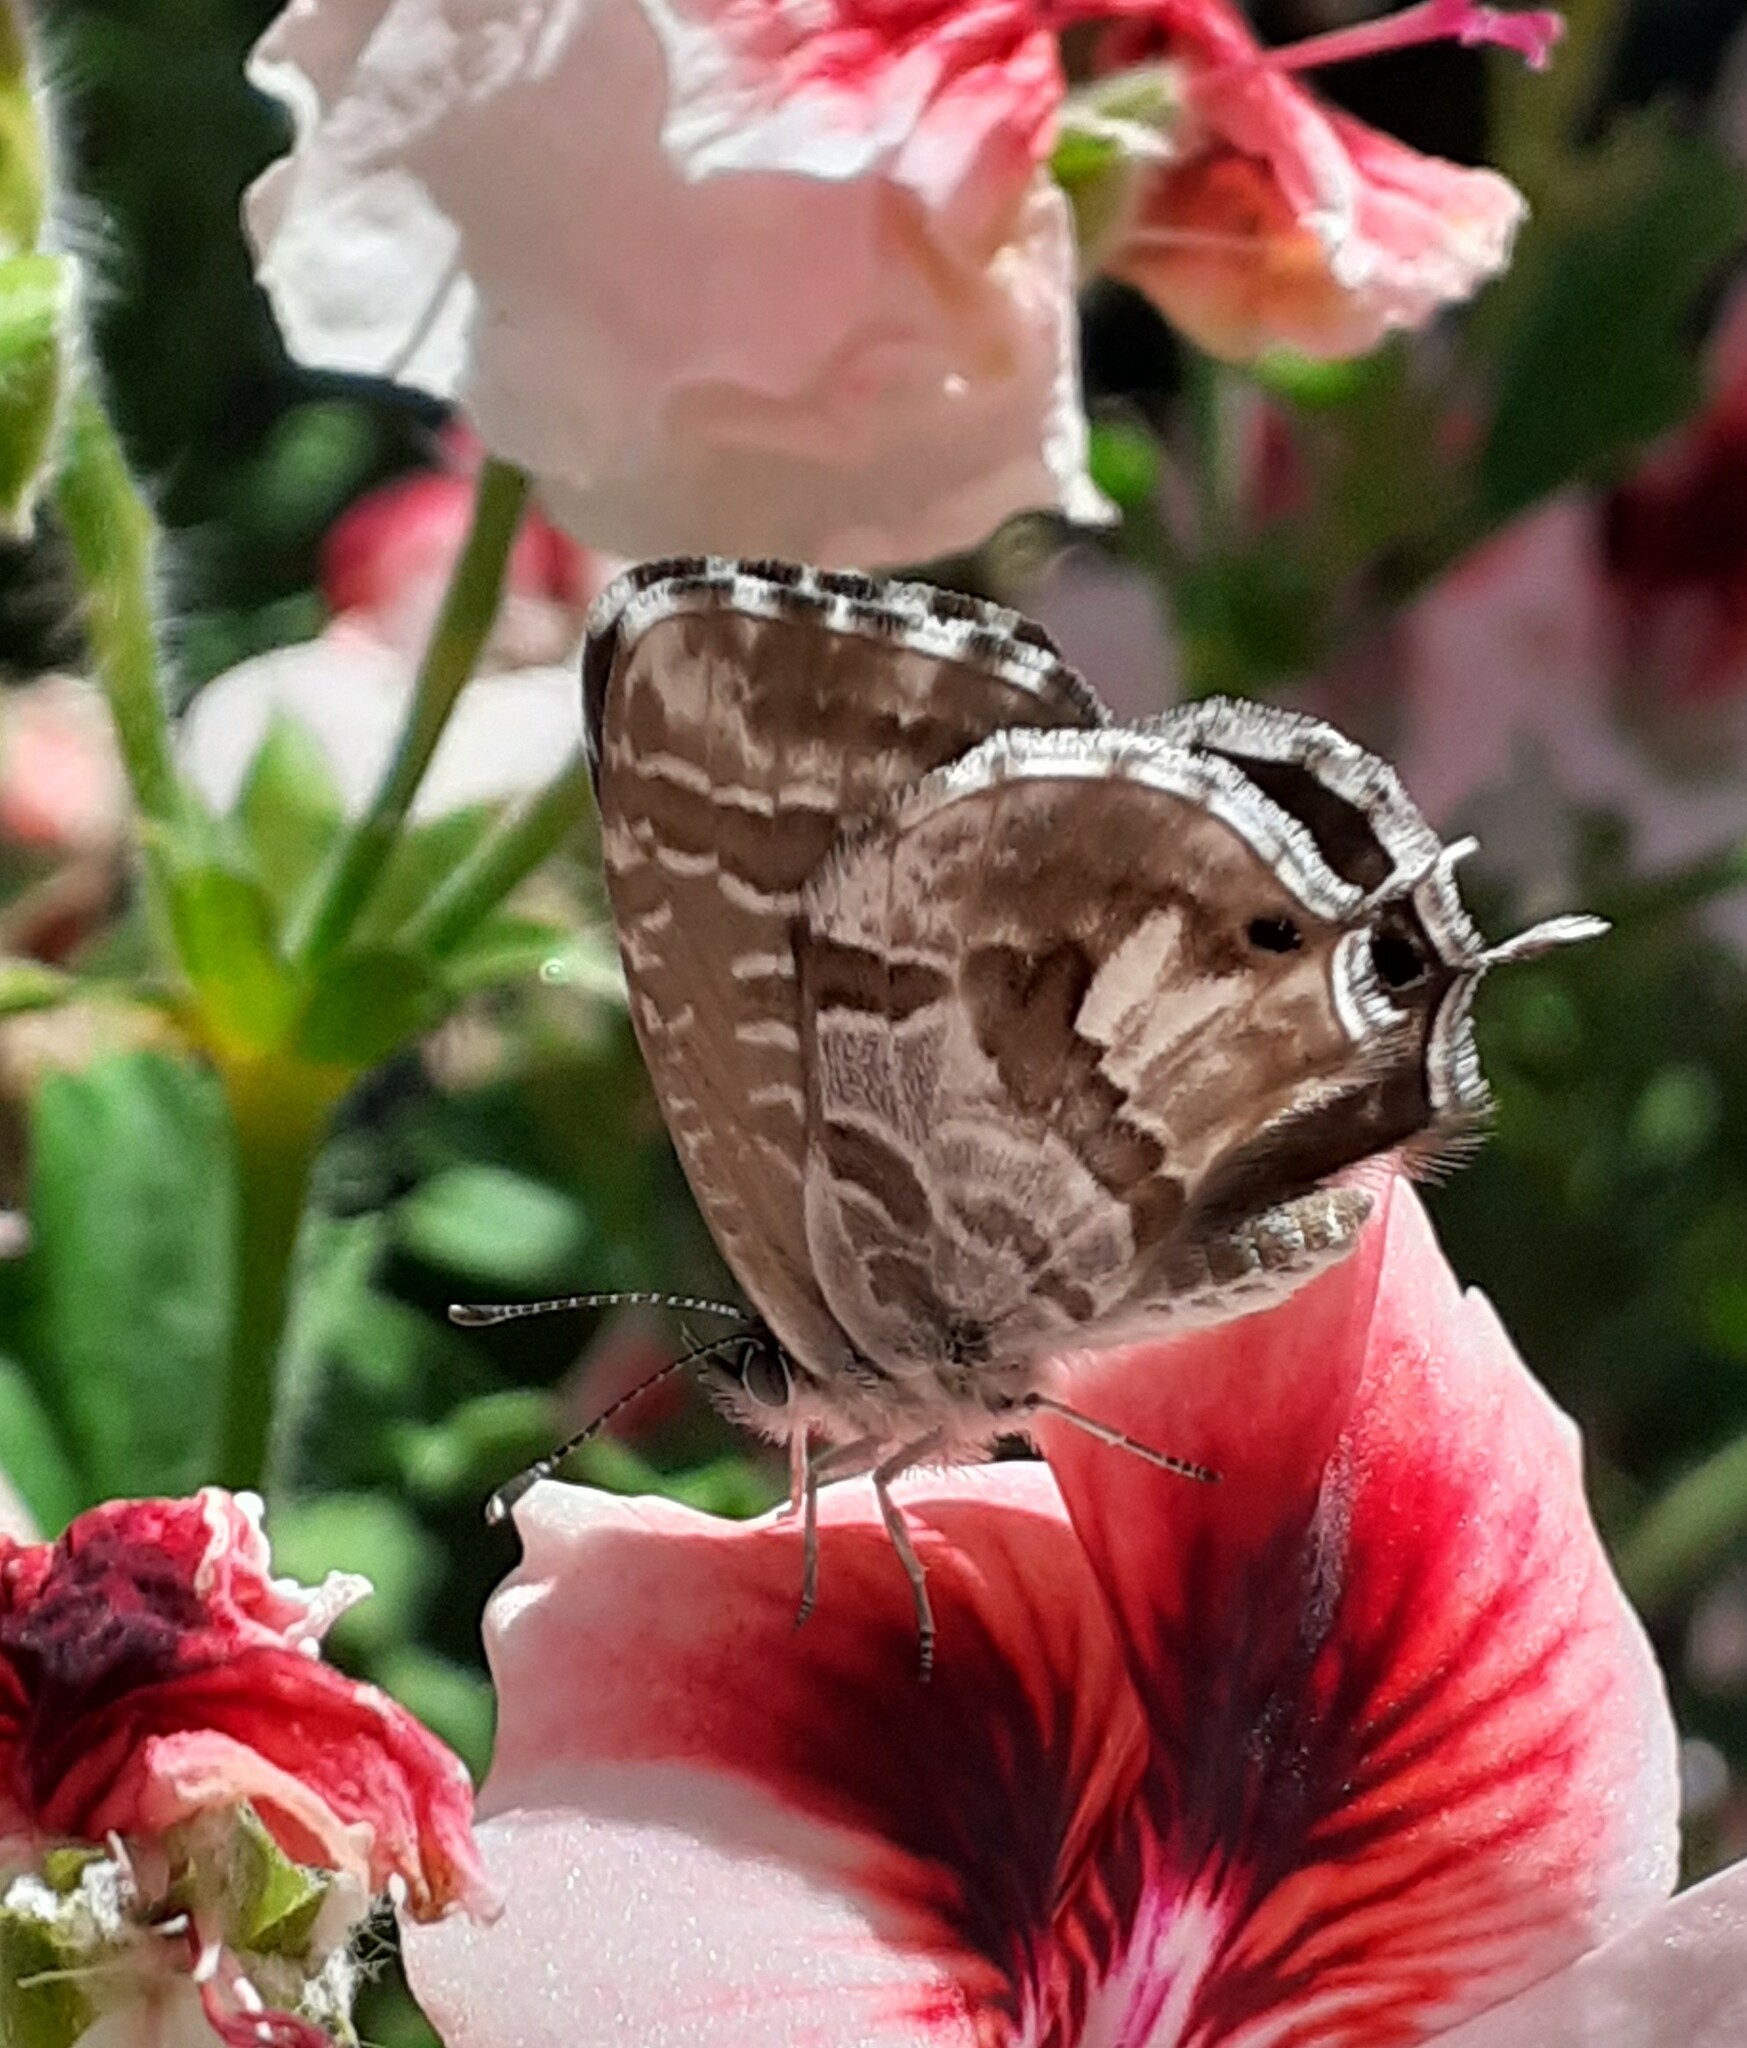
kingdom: Animalia
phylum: Arthropoda
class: Insecta
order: Lepidoptera
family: Lycaenidae
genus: Cacyreus
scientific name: Cacyreus marshalli
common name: Geranium bronze
